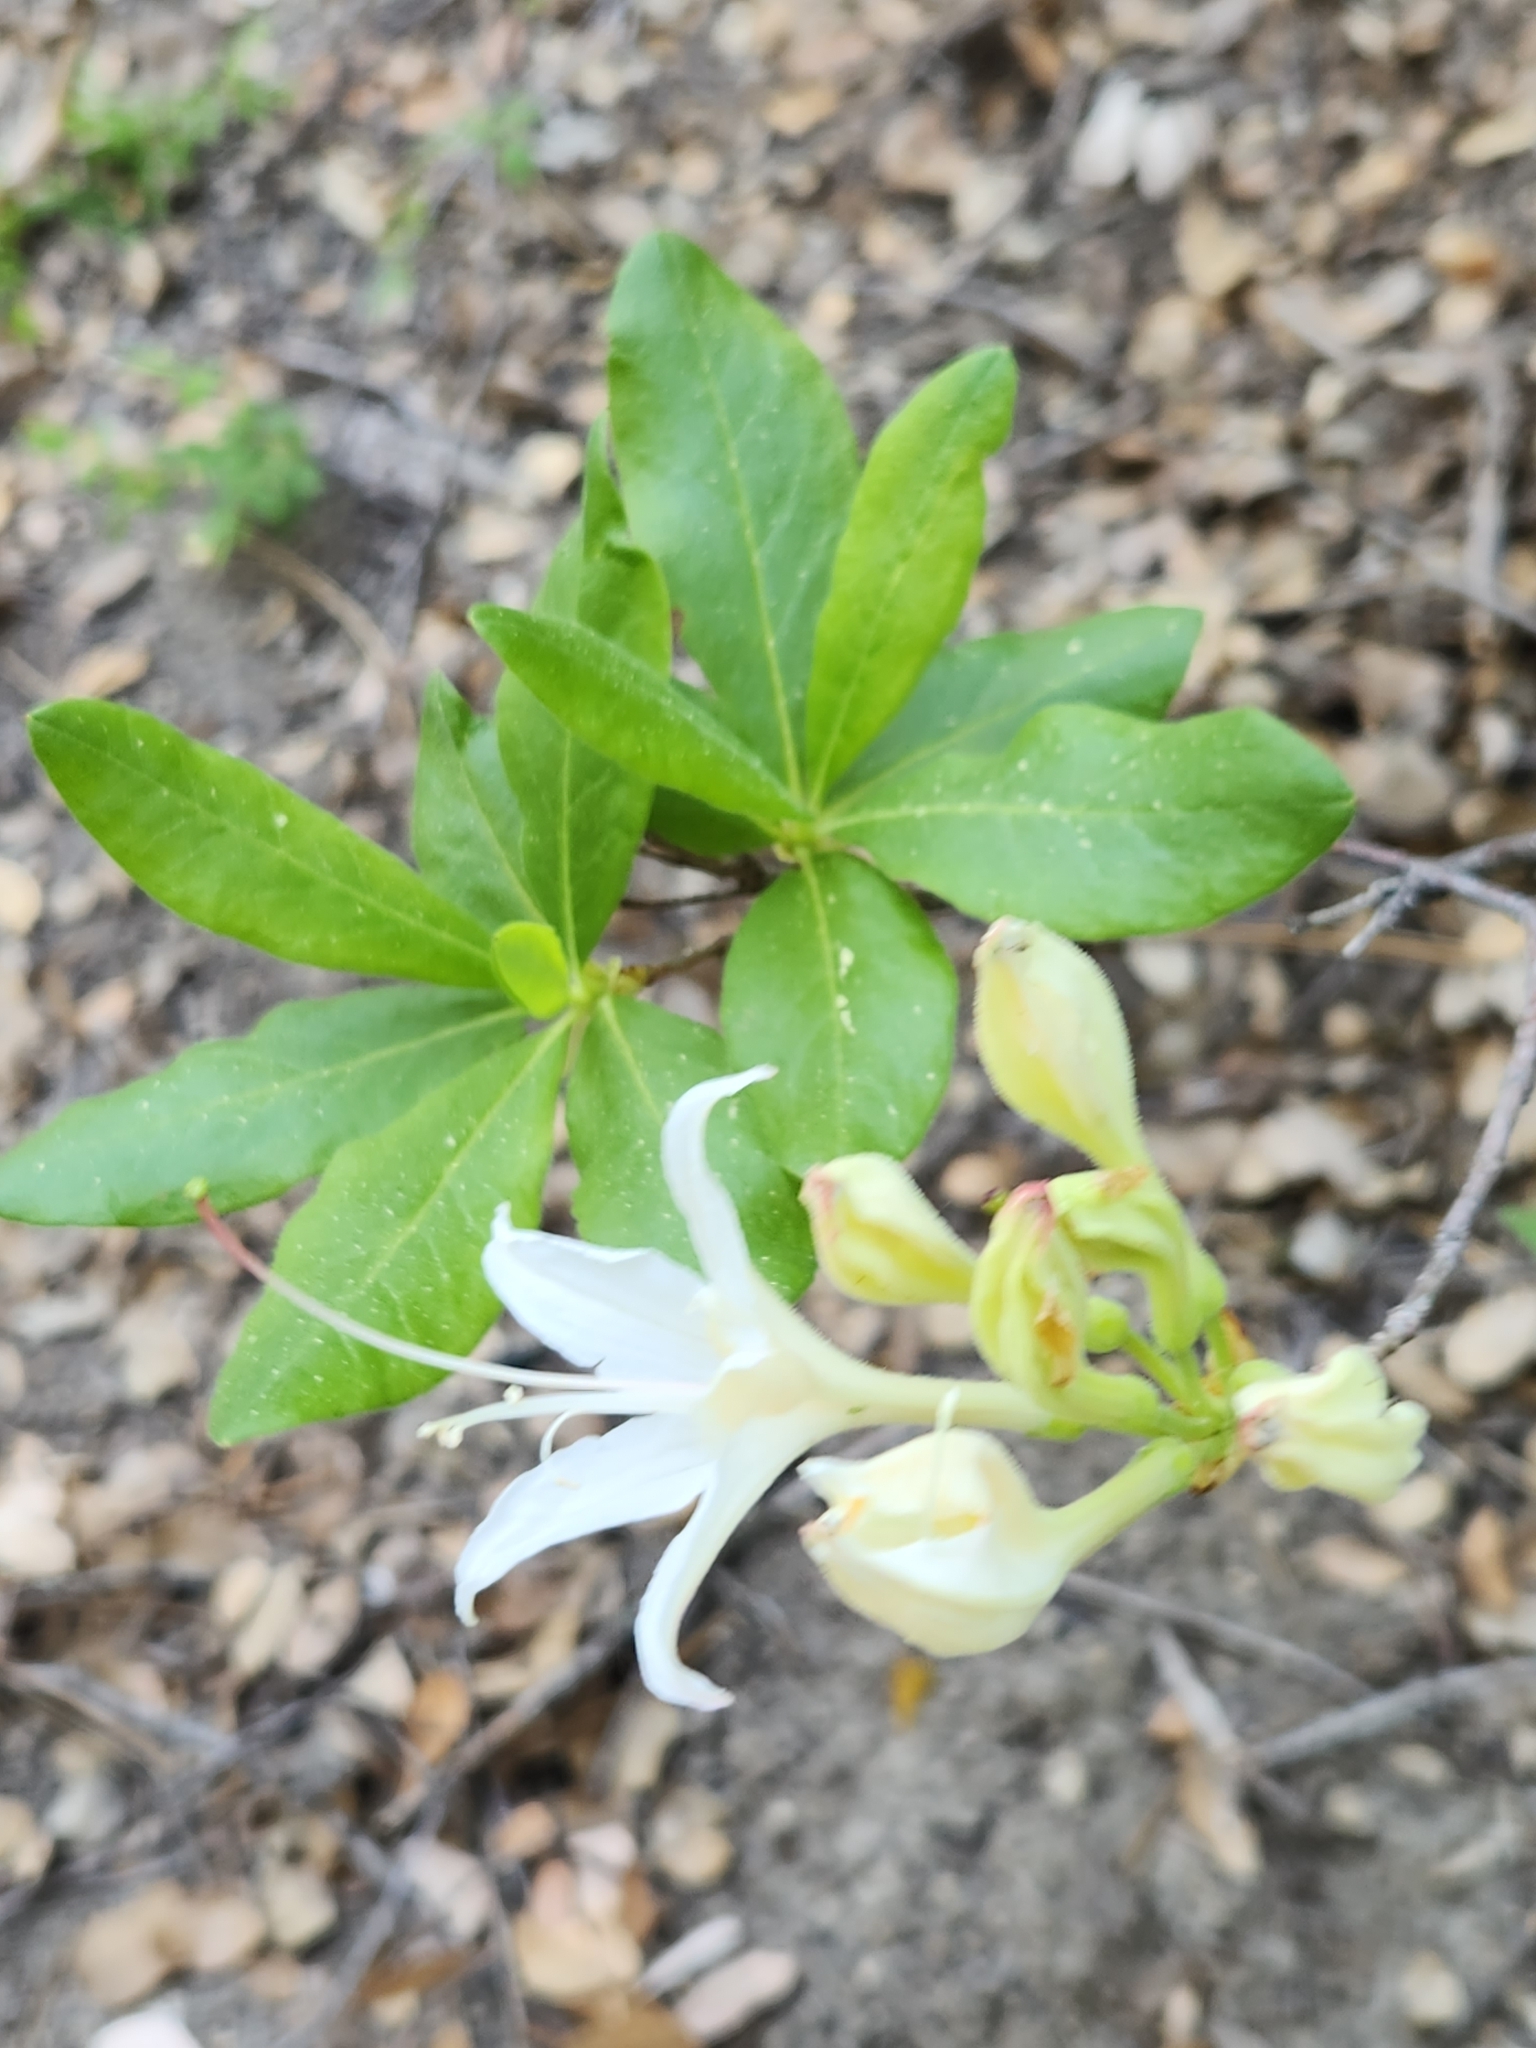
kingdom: Plantae
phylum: Tracheophyta
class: Magnoliopsida
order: Ericales
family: Ericaceae
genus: Rhododendron
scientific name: Rhododendron occidentale
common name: Western azalea
